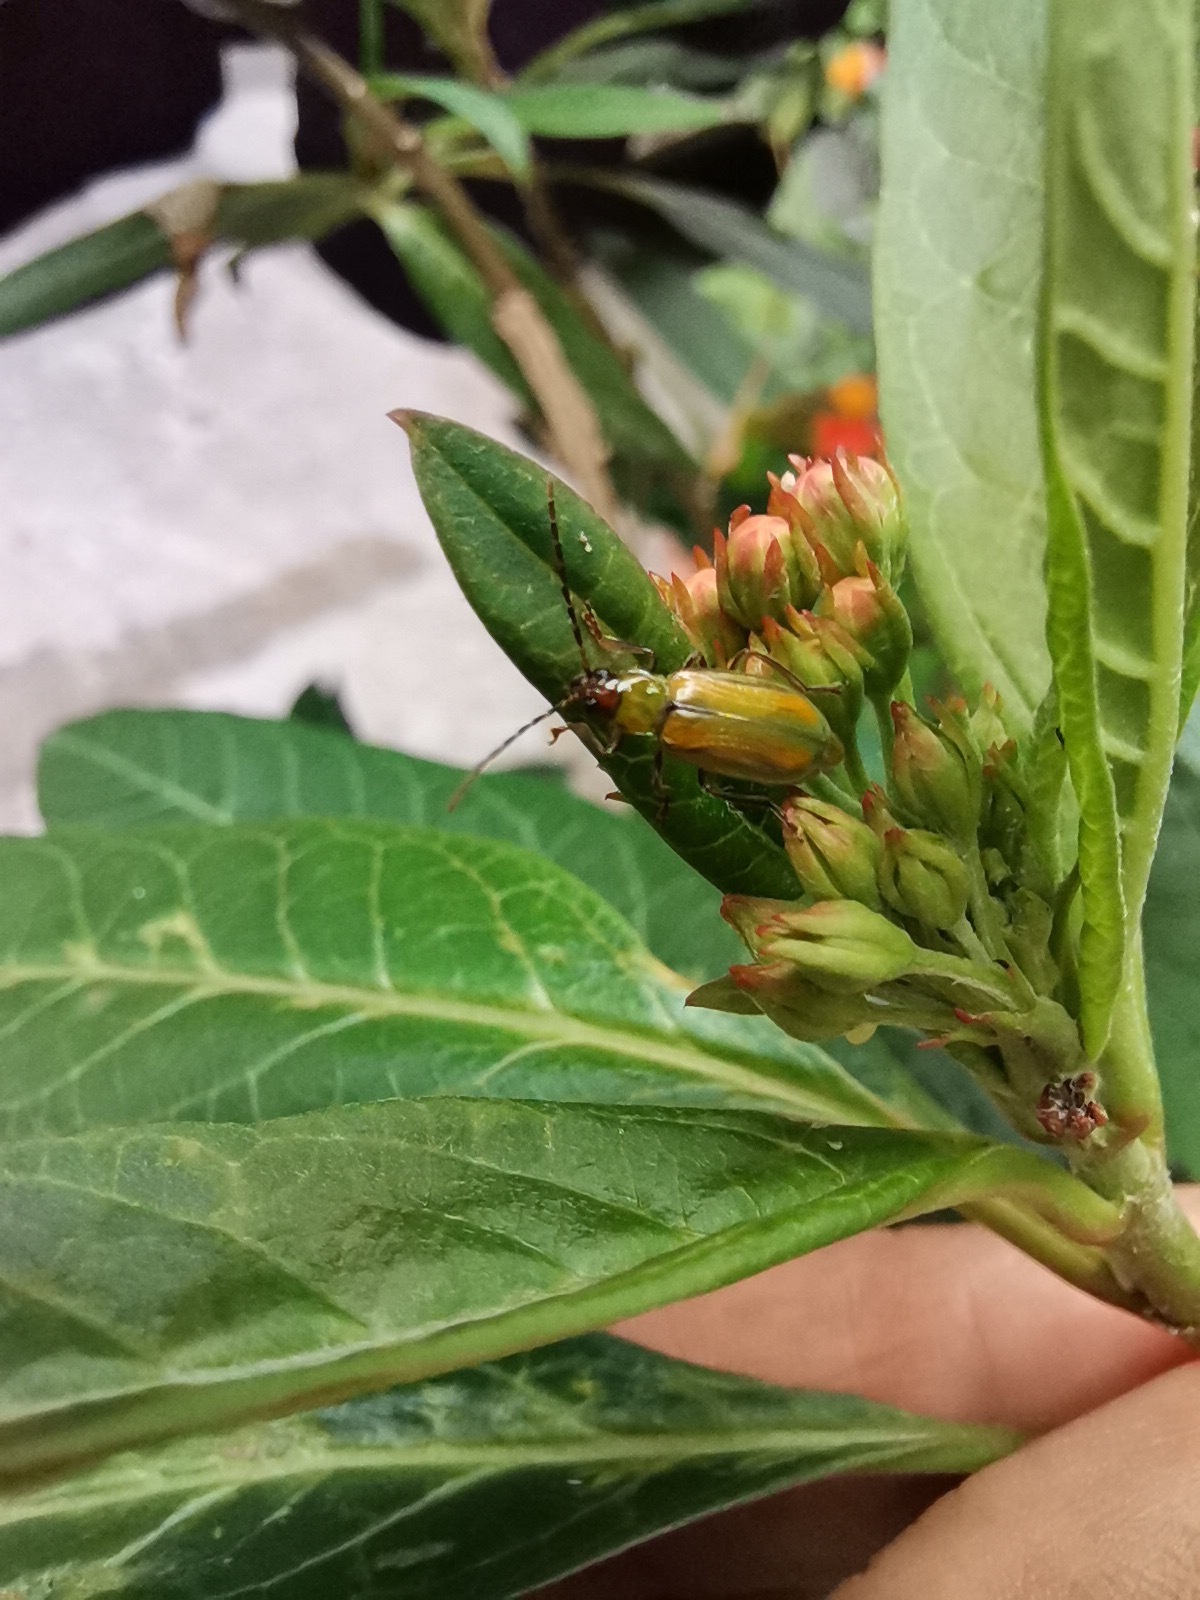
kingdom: Animalia
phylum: Arthropoda
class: Insecta
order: Coleoptera
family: Chrysomelidae
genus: Diabrotica
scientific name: Diabrotica virgifera
